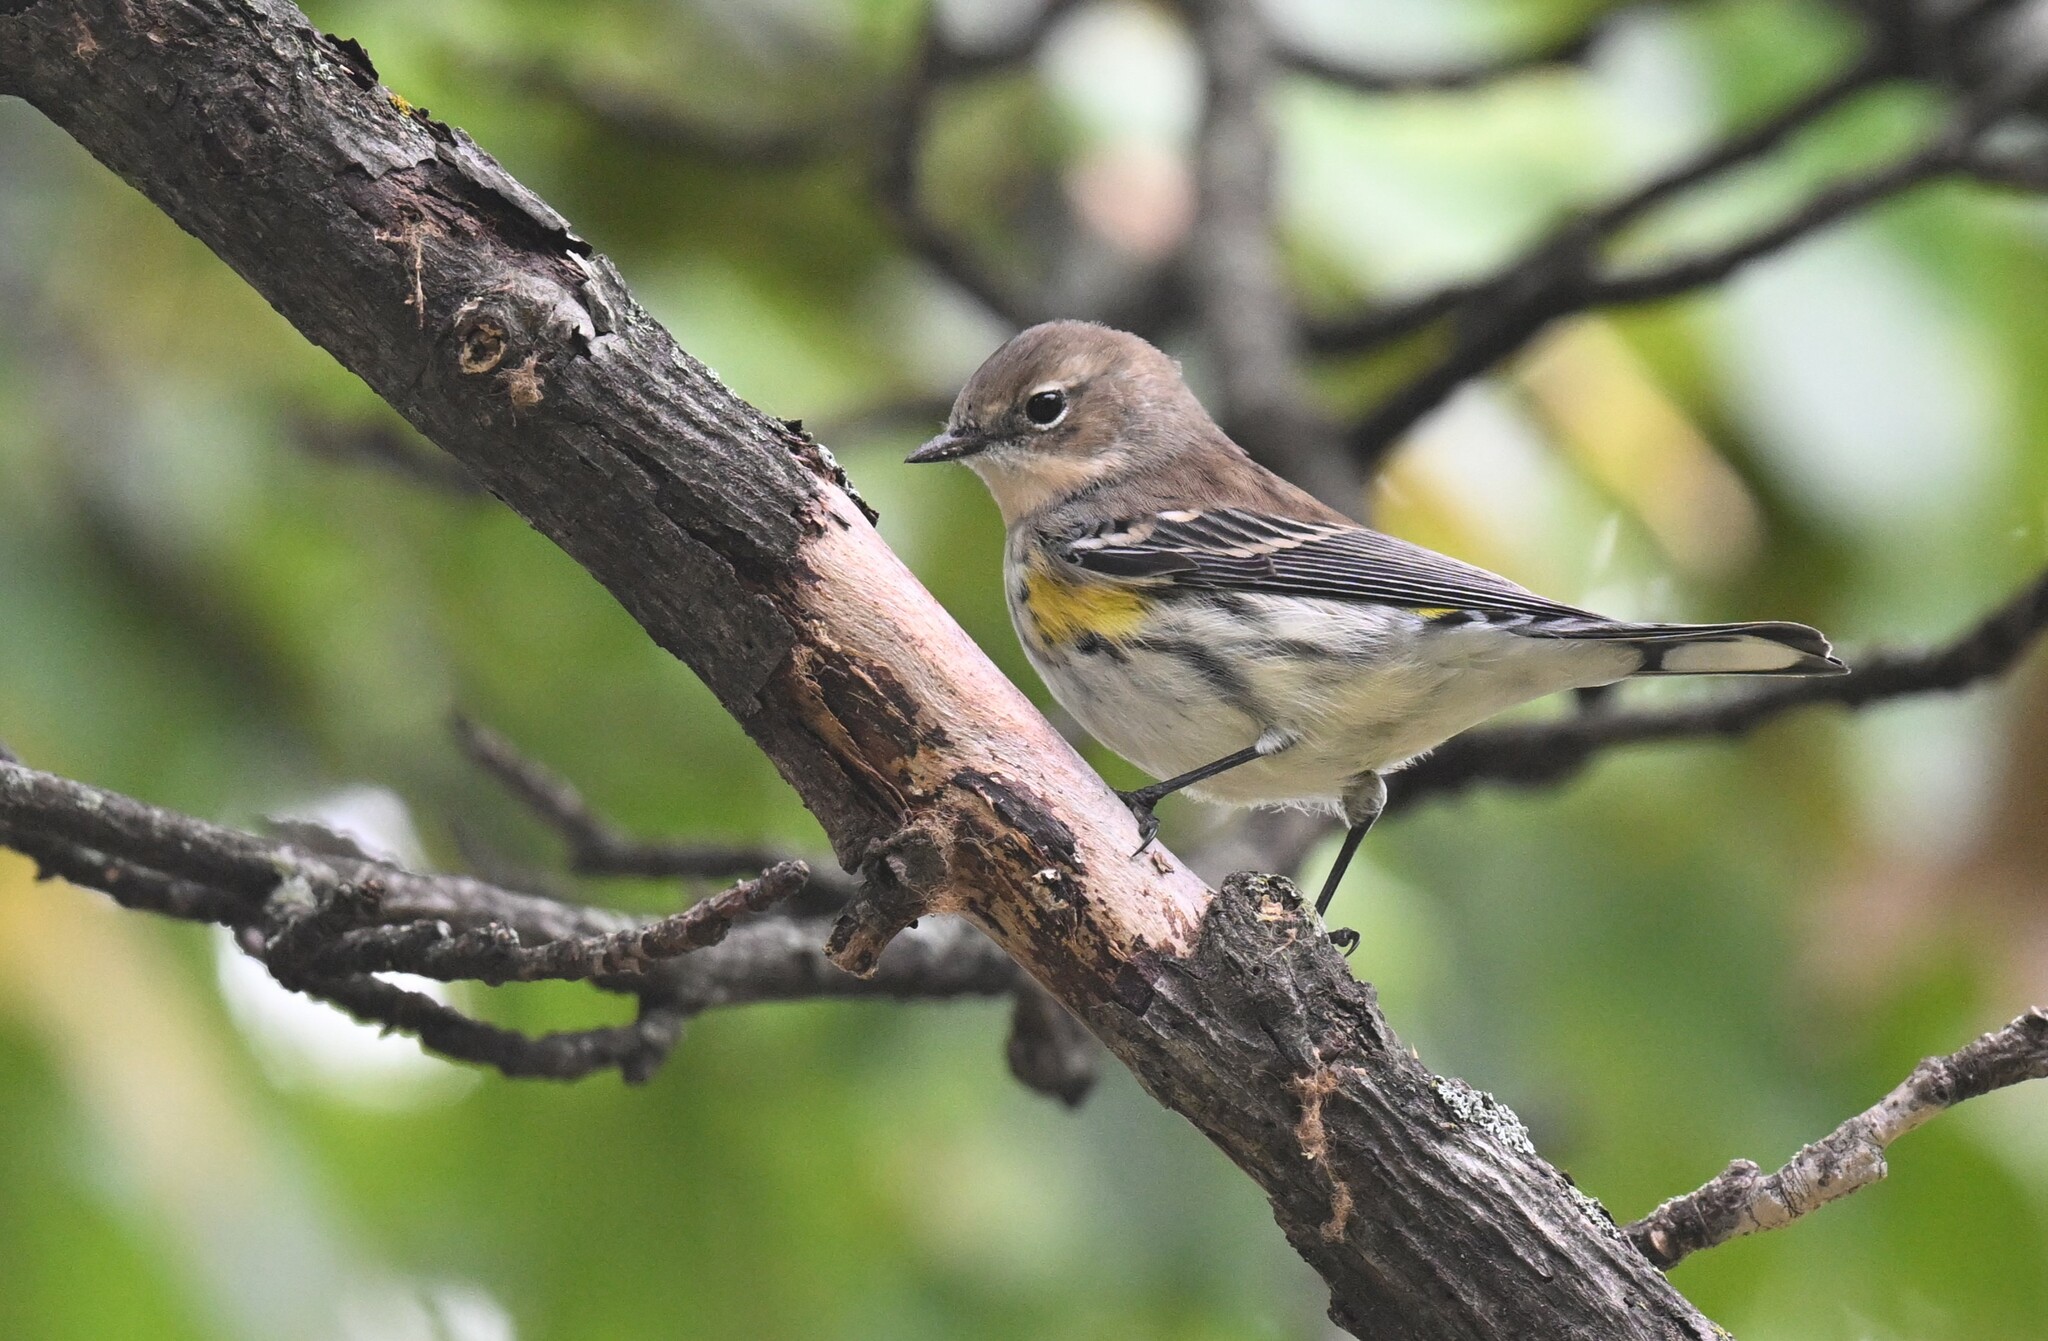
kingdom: Animalia
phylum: Chordata
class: Aves
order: Passeriformes
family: Parulidae
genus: Setophaga
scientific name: Setophaga coronata
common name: Myrtle warbler
